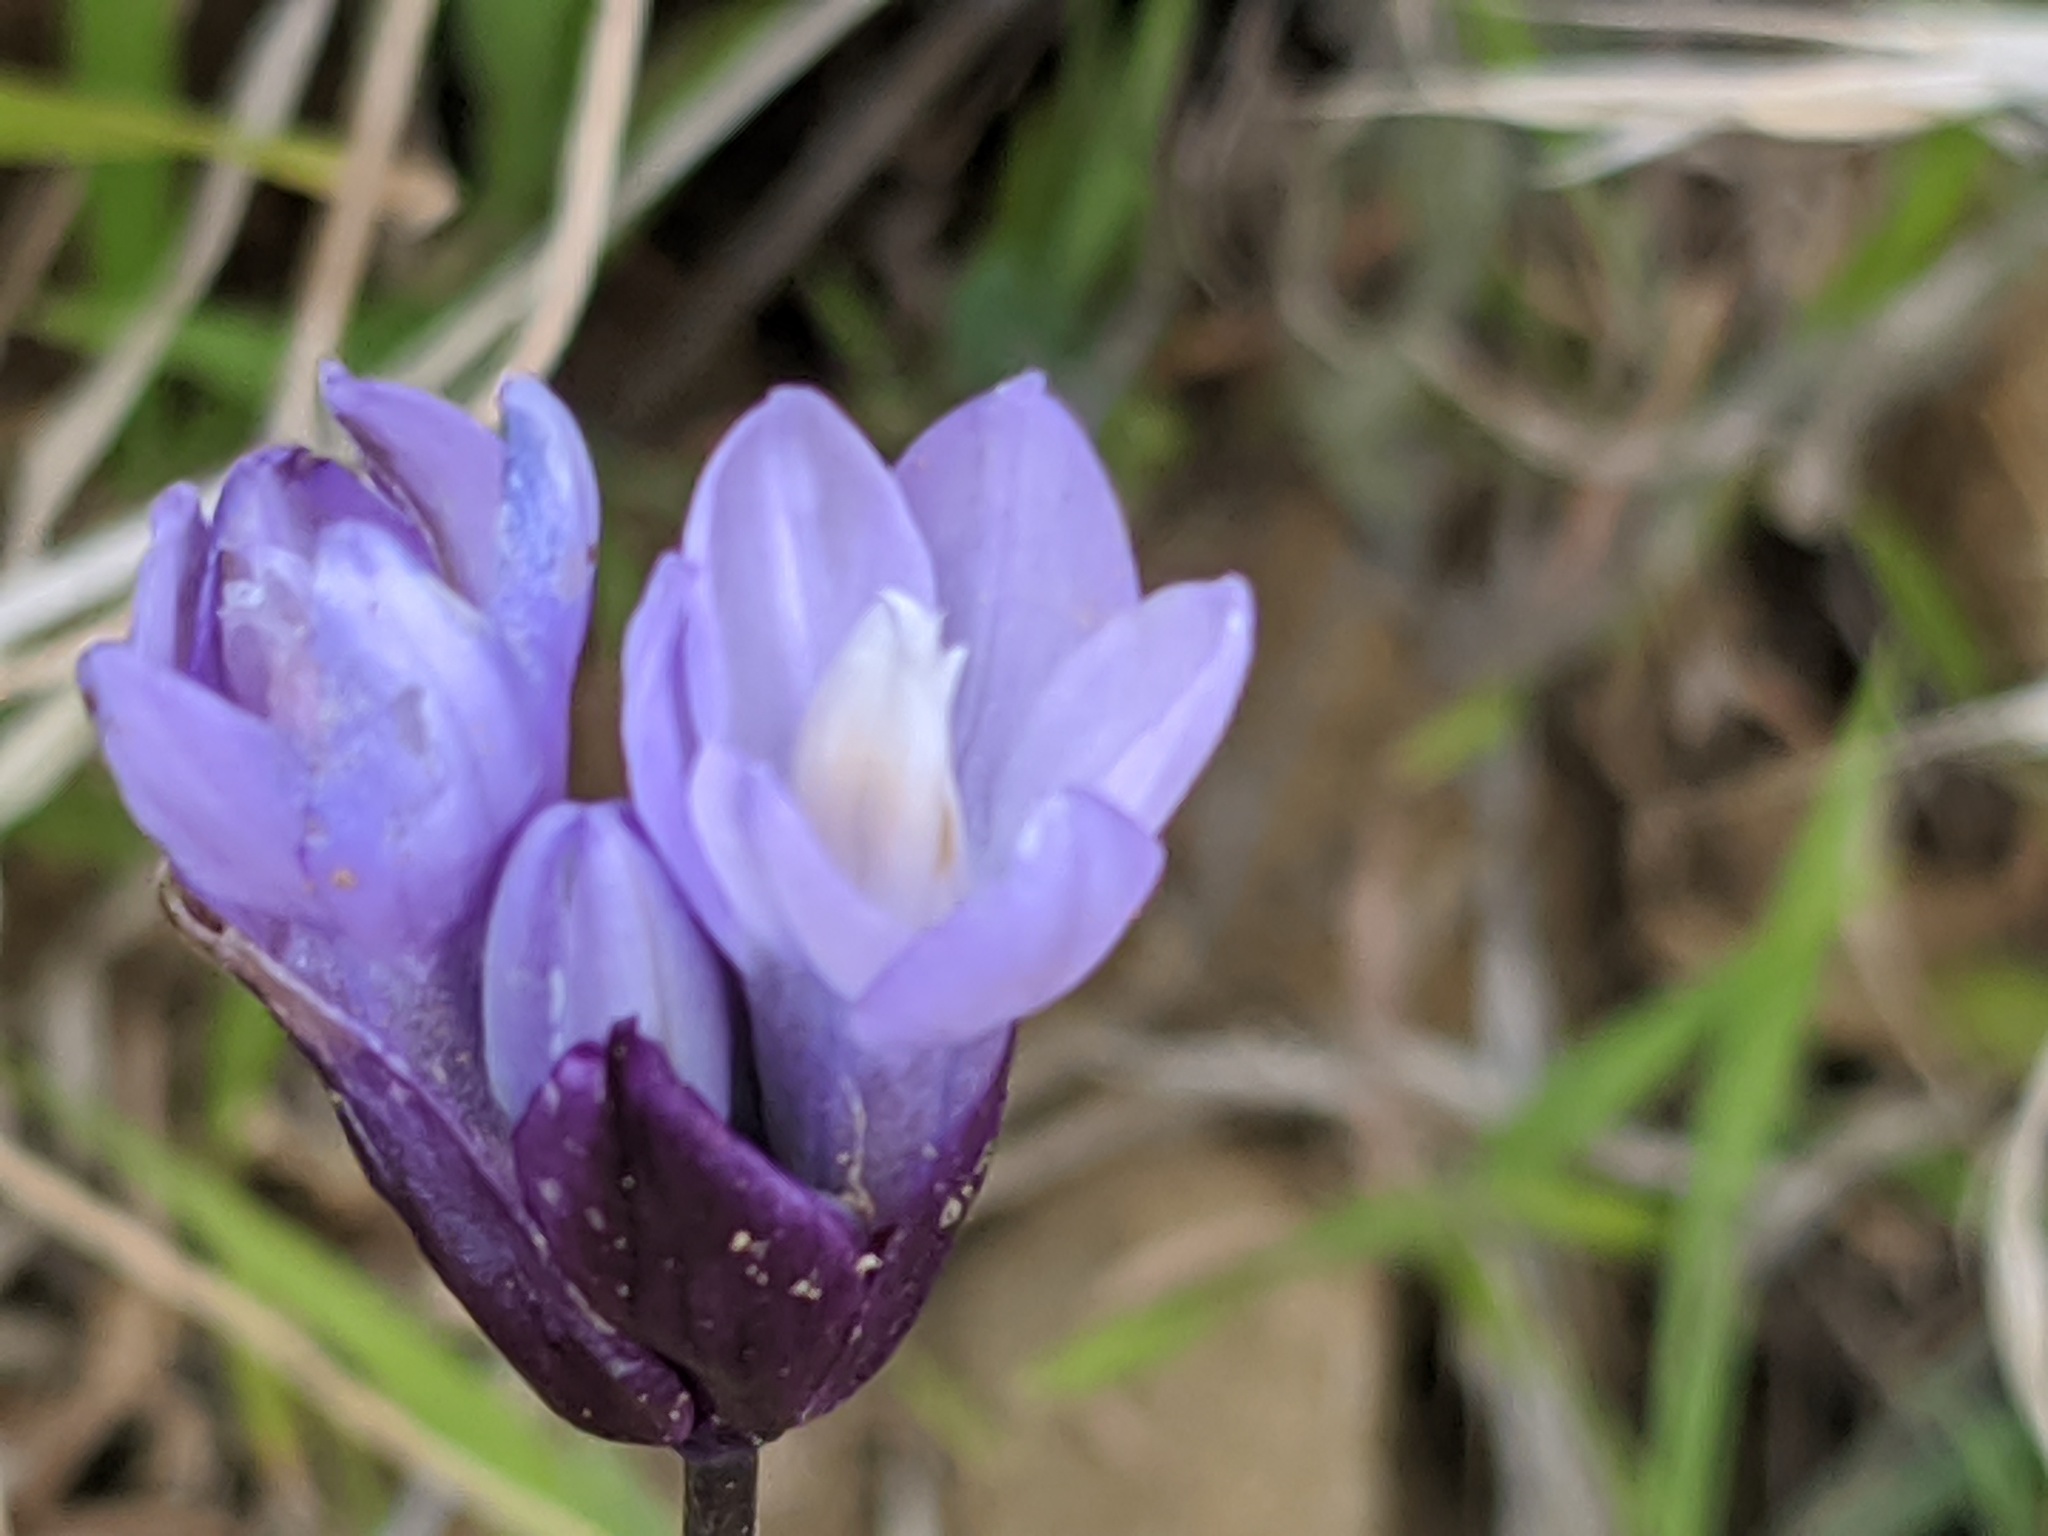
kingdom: Plantae
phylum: Tracheophyta
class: Liliopsida
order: Asparagales
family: Asparagaceae
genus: Dipterostemon
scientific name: Dipterostemon capitatus
